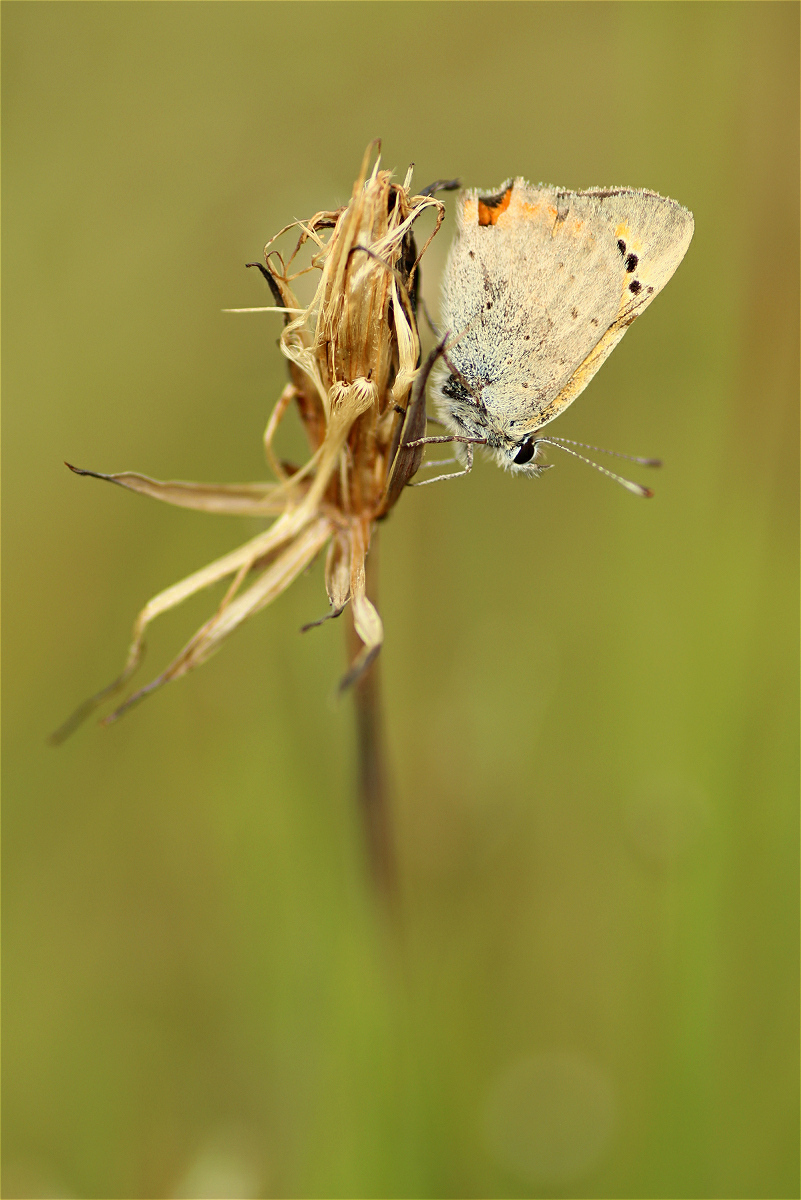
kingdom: Animalia
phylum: Arthropoda
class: Insecta
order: Lepidoptera
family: Lycaenidae
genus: Lycaena
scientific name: Lycaena phlaeas
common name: Small copper
